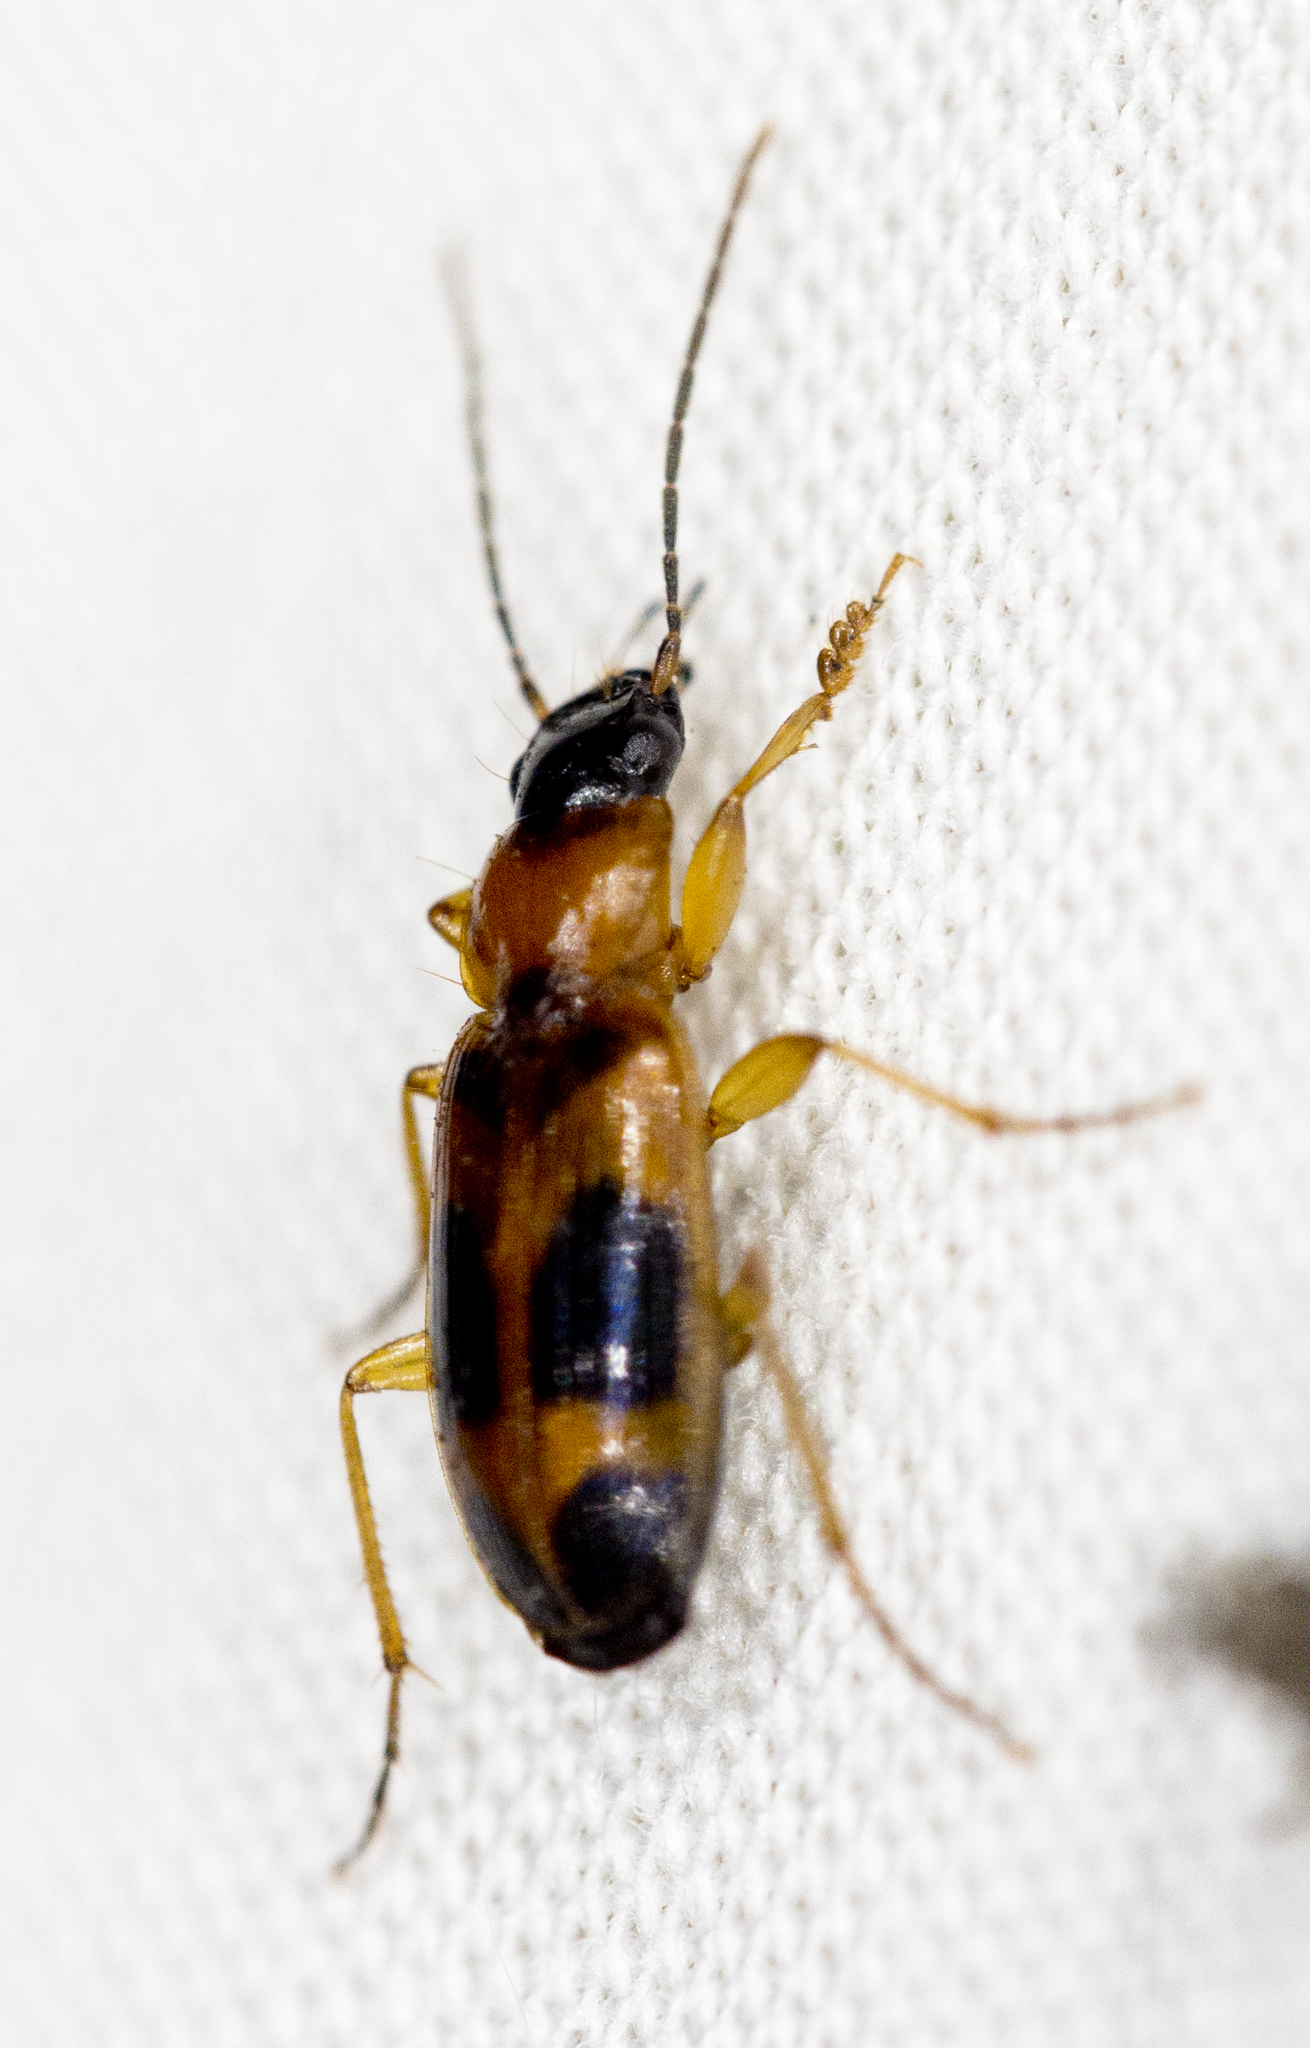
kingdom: Animalia
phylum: Arthropoda
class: Insecta
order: Coleoptera
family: Carabidae
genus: Badister
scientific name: Badister neopulchellus
